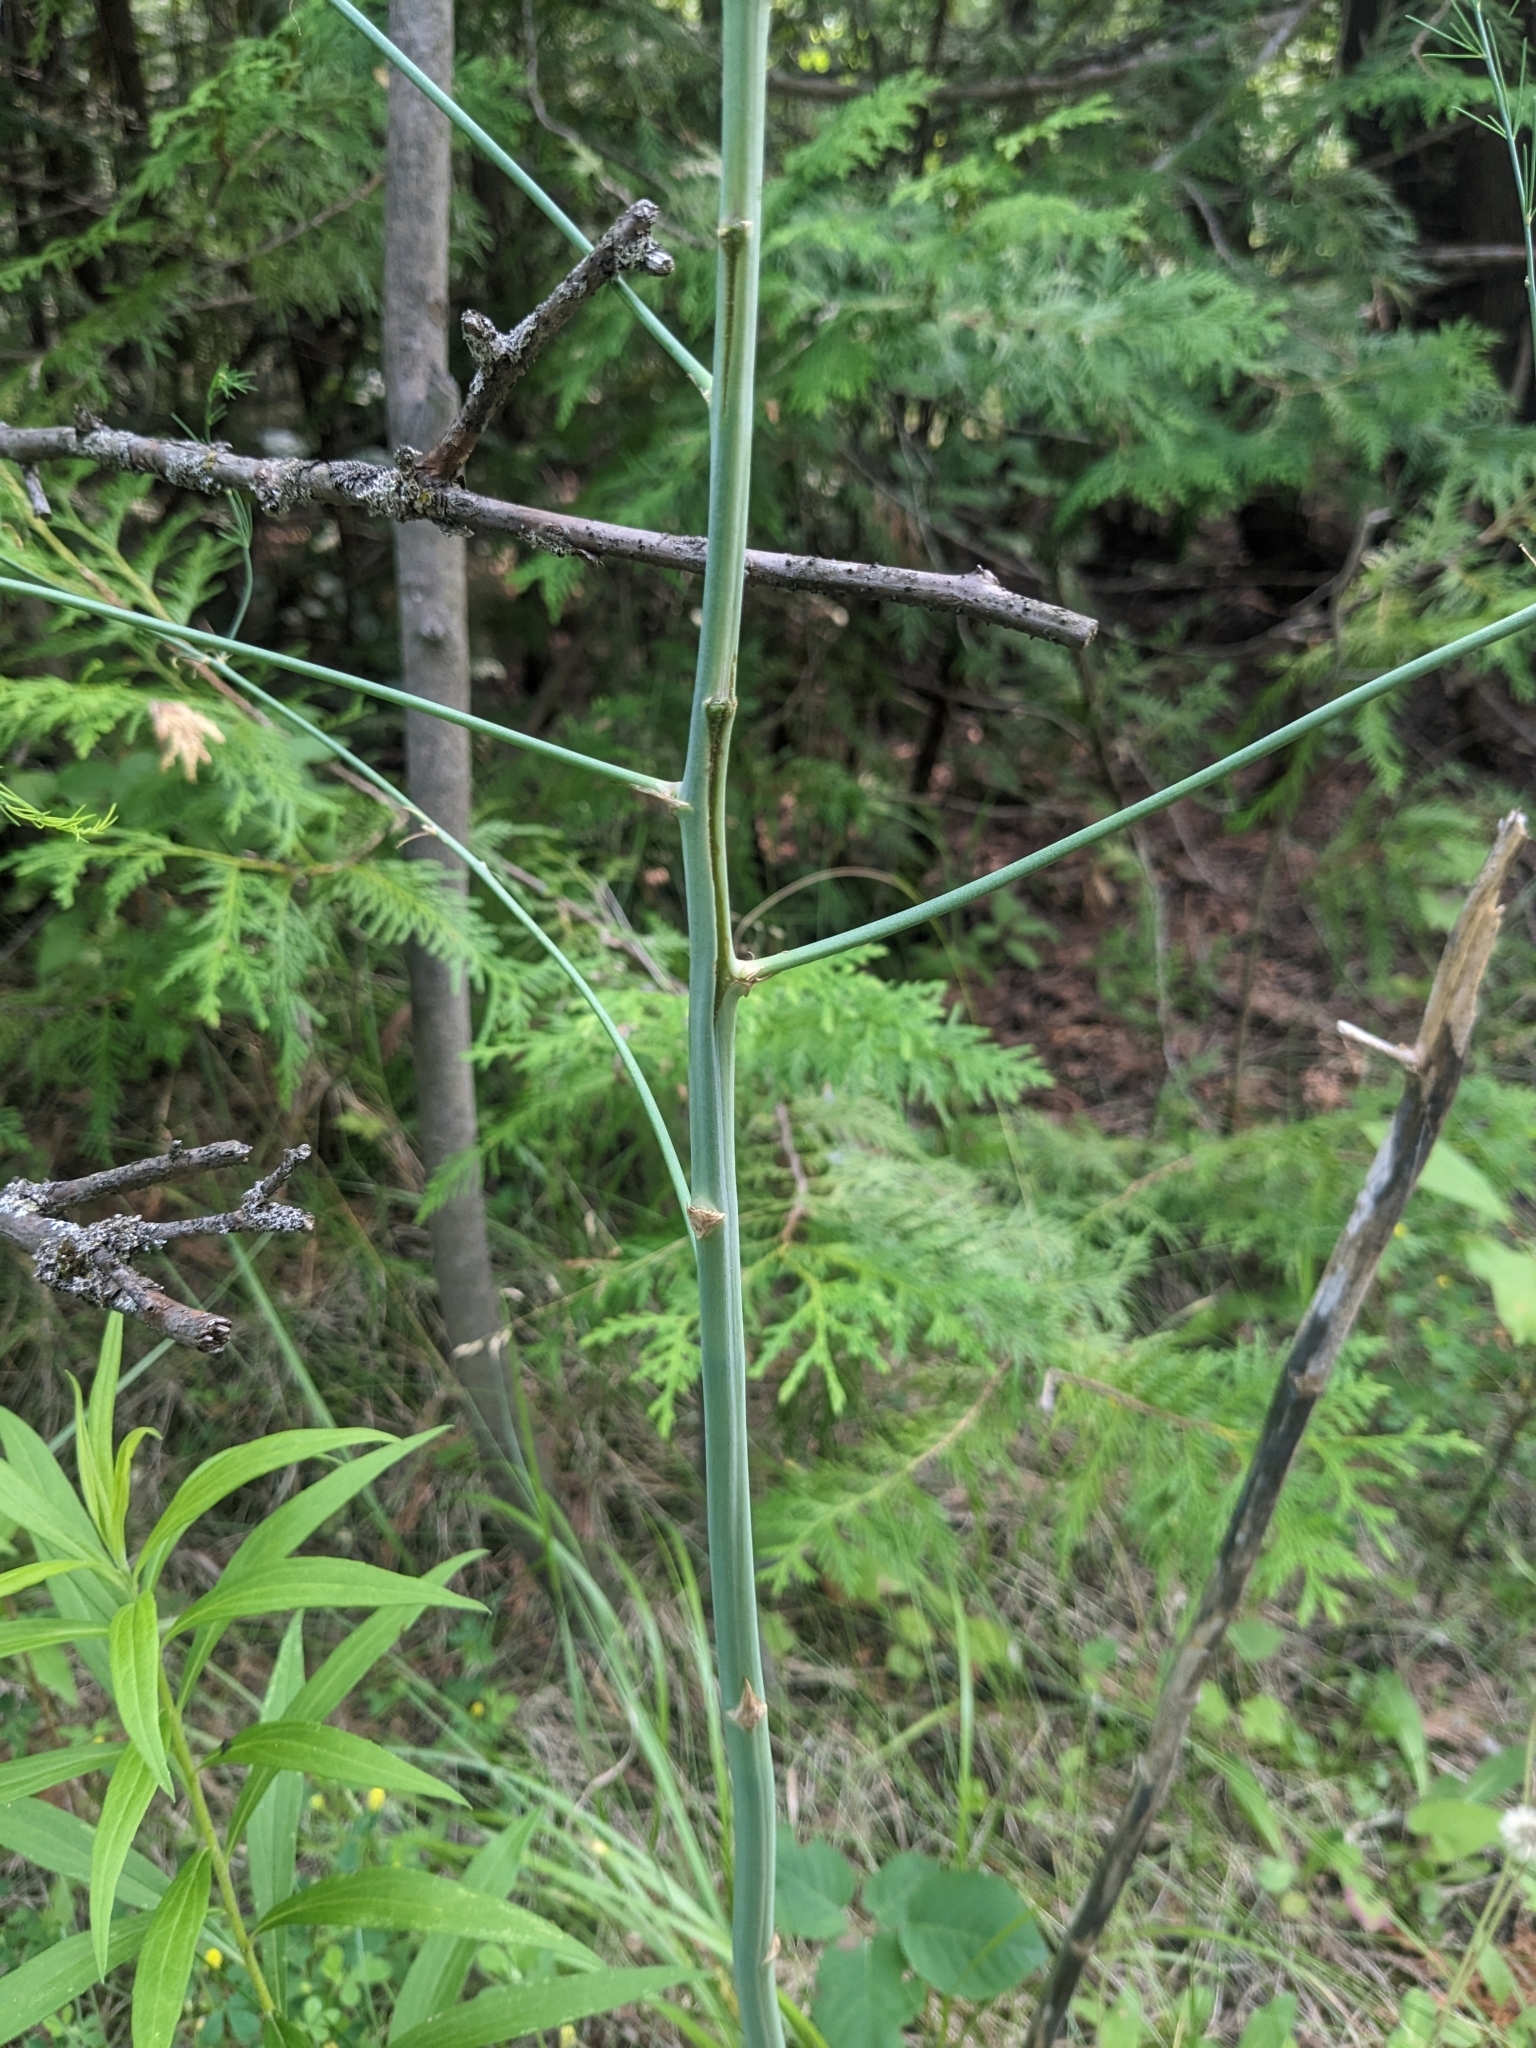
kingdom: Plantae
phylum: Tracheophyta
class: Liliopsida
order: Asparagales
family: Asparagaceae
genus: Asparagus
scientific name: Asparagus officinalis
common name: Garden asparagus
